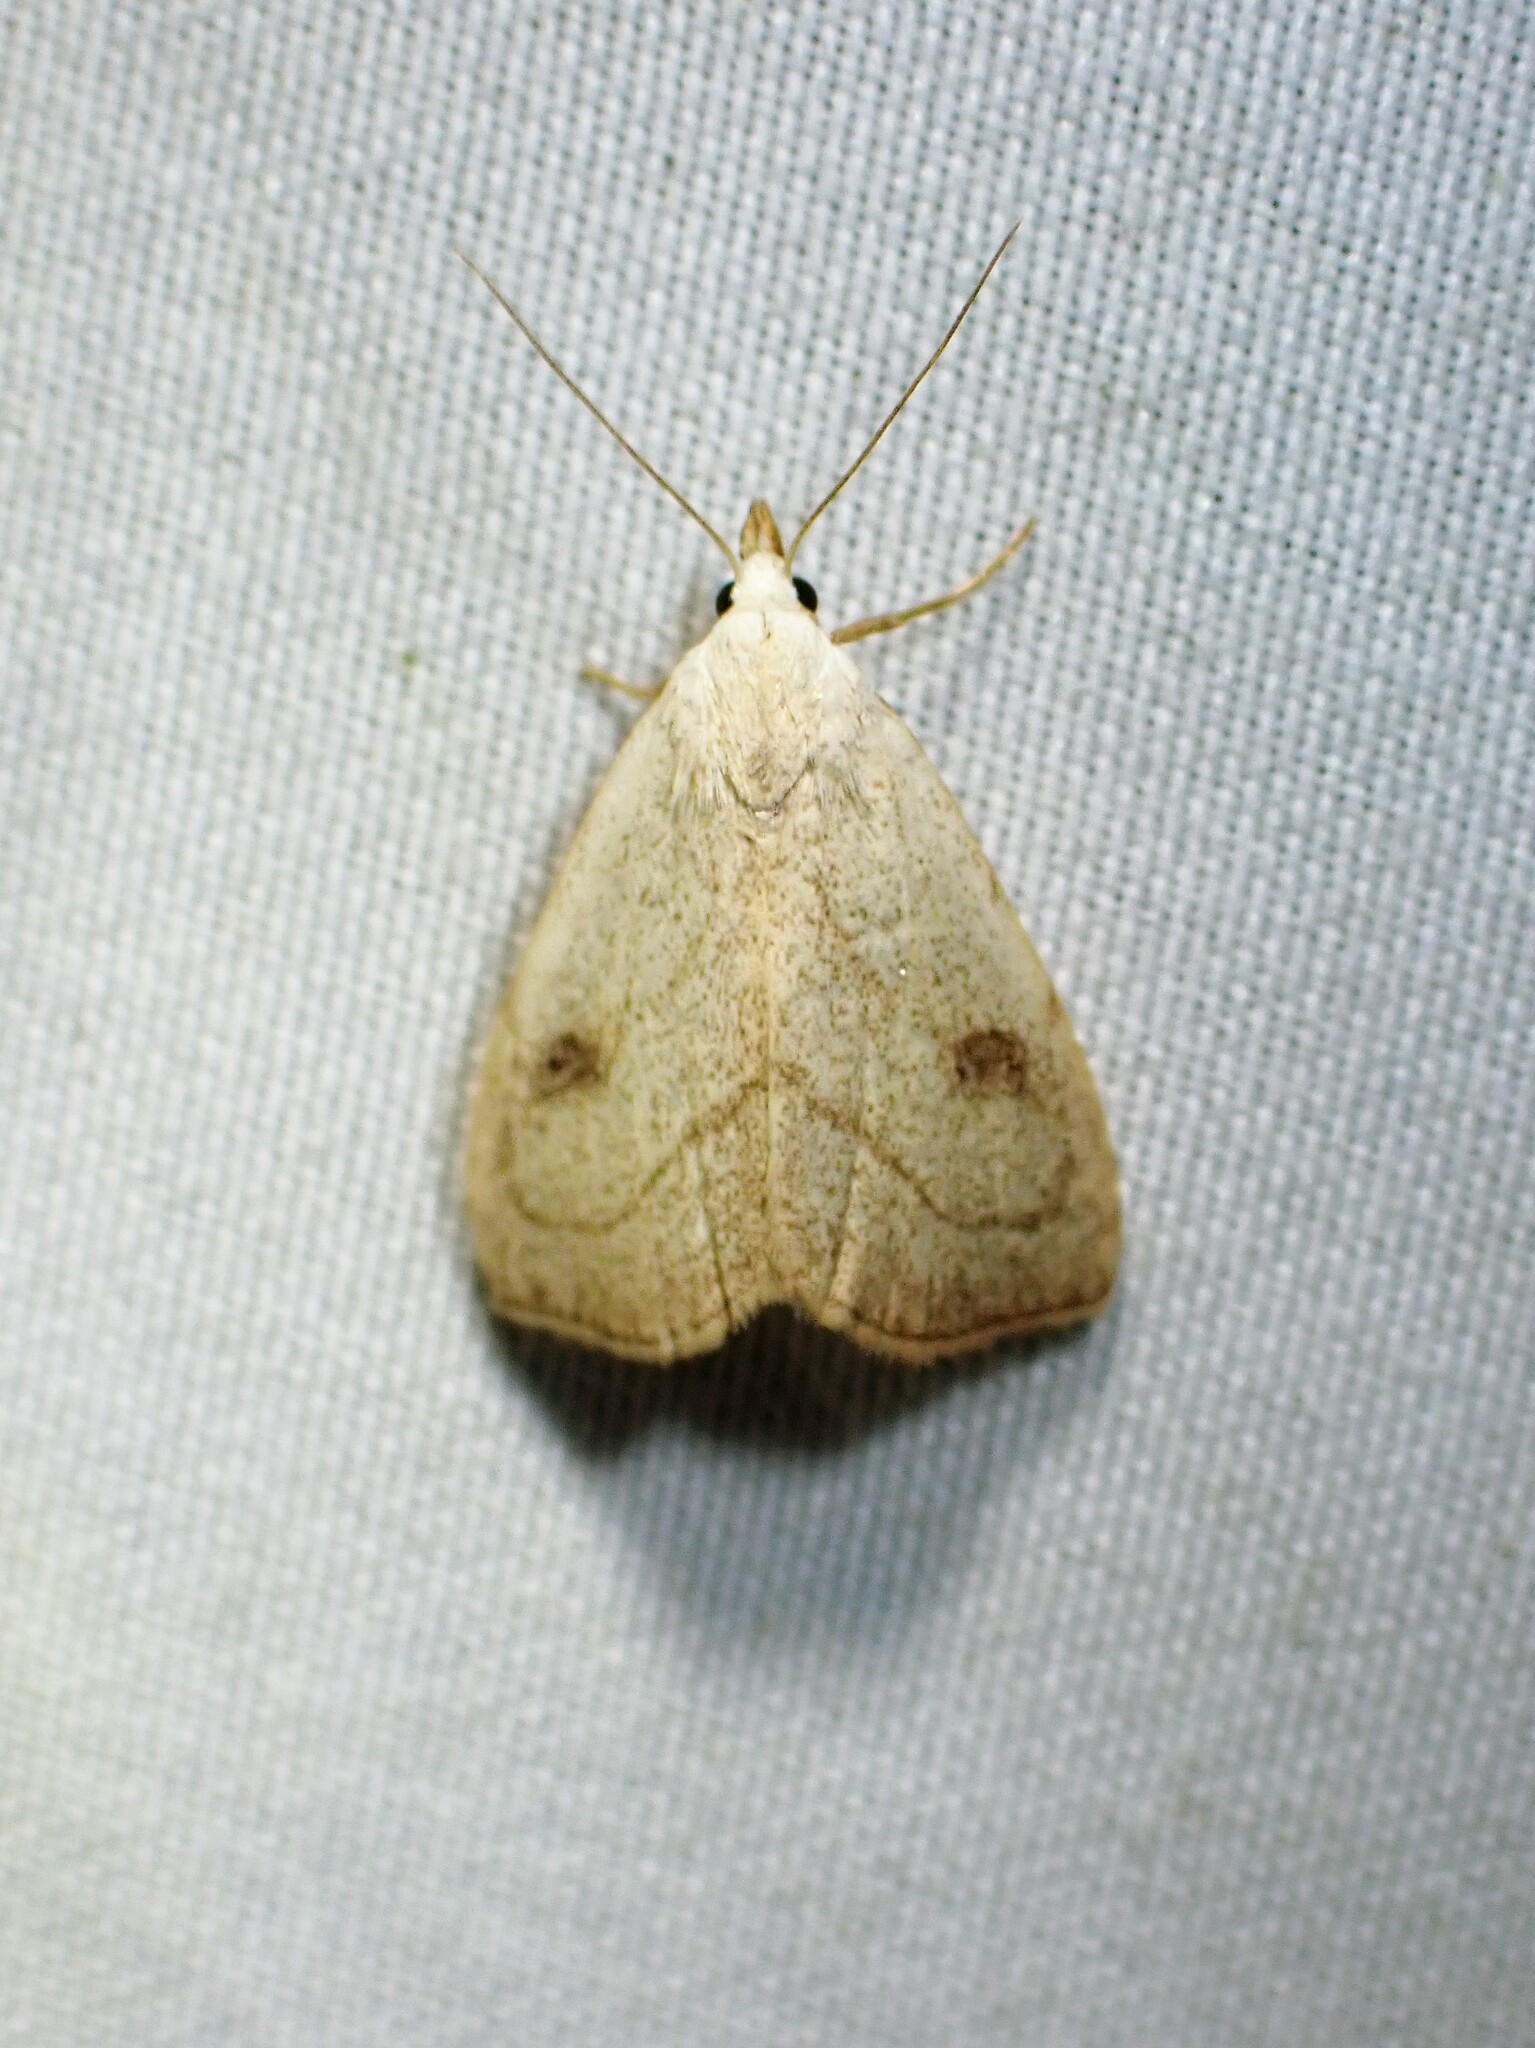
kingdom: Animalia
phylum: Arthropoda
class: Insecta
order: Lepidoptera
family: Erebidae
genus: Rivula
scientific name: Rivula propinqualis
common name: Spotted grass moth
